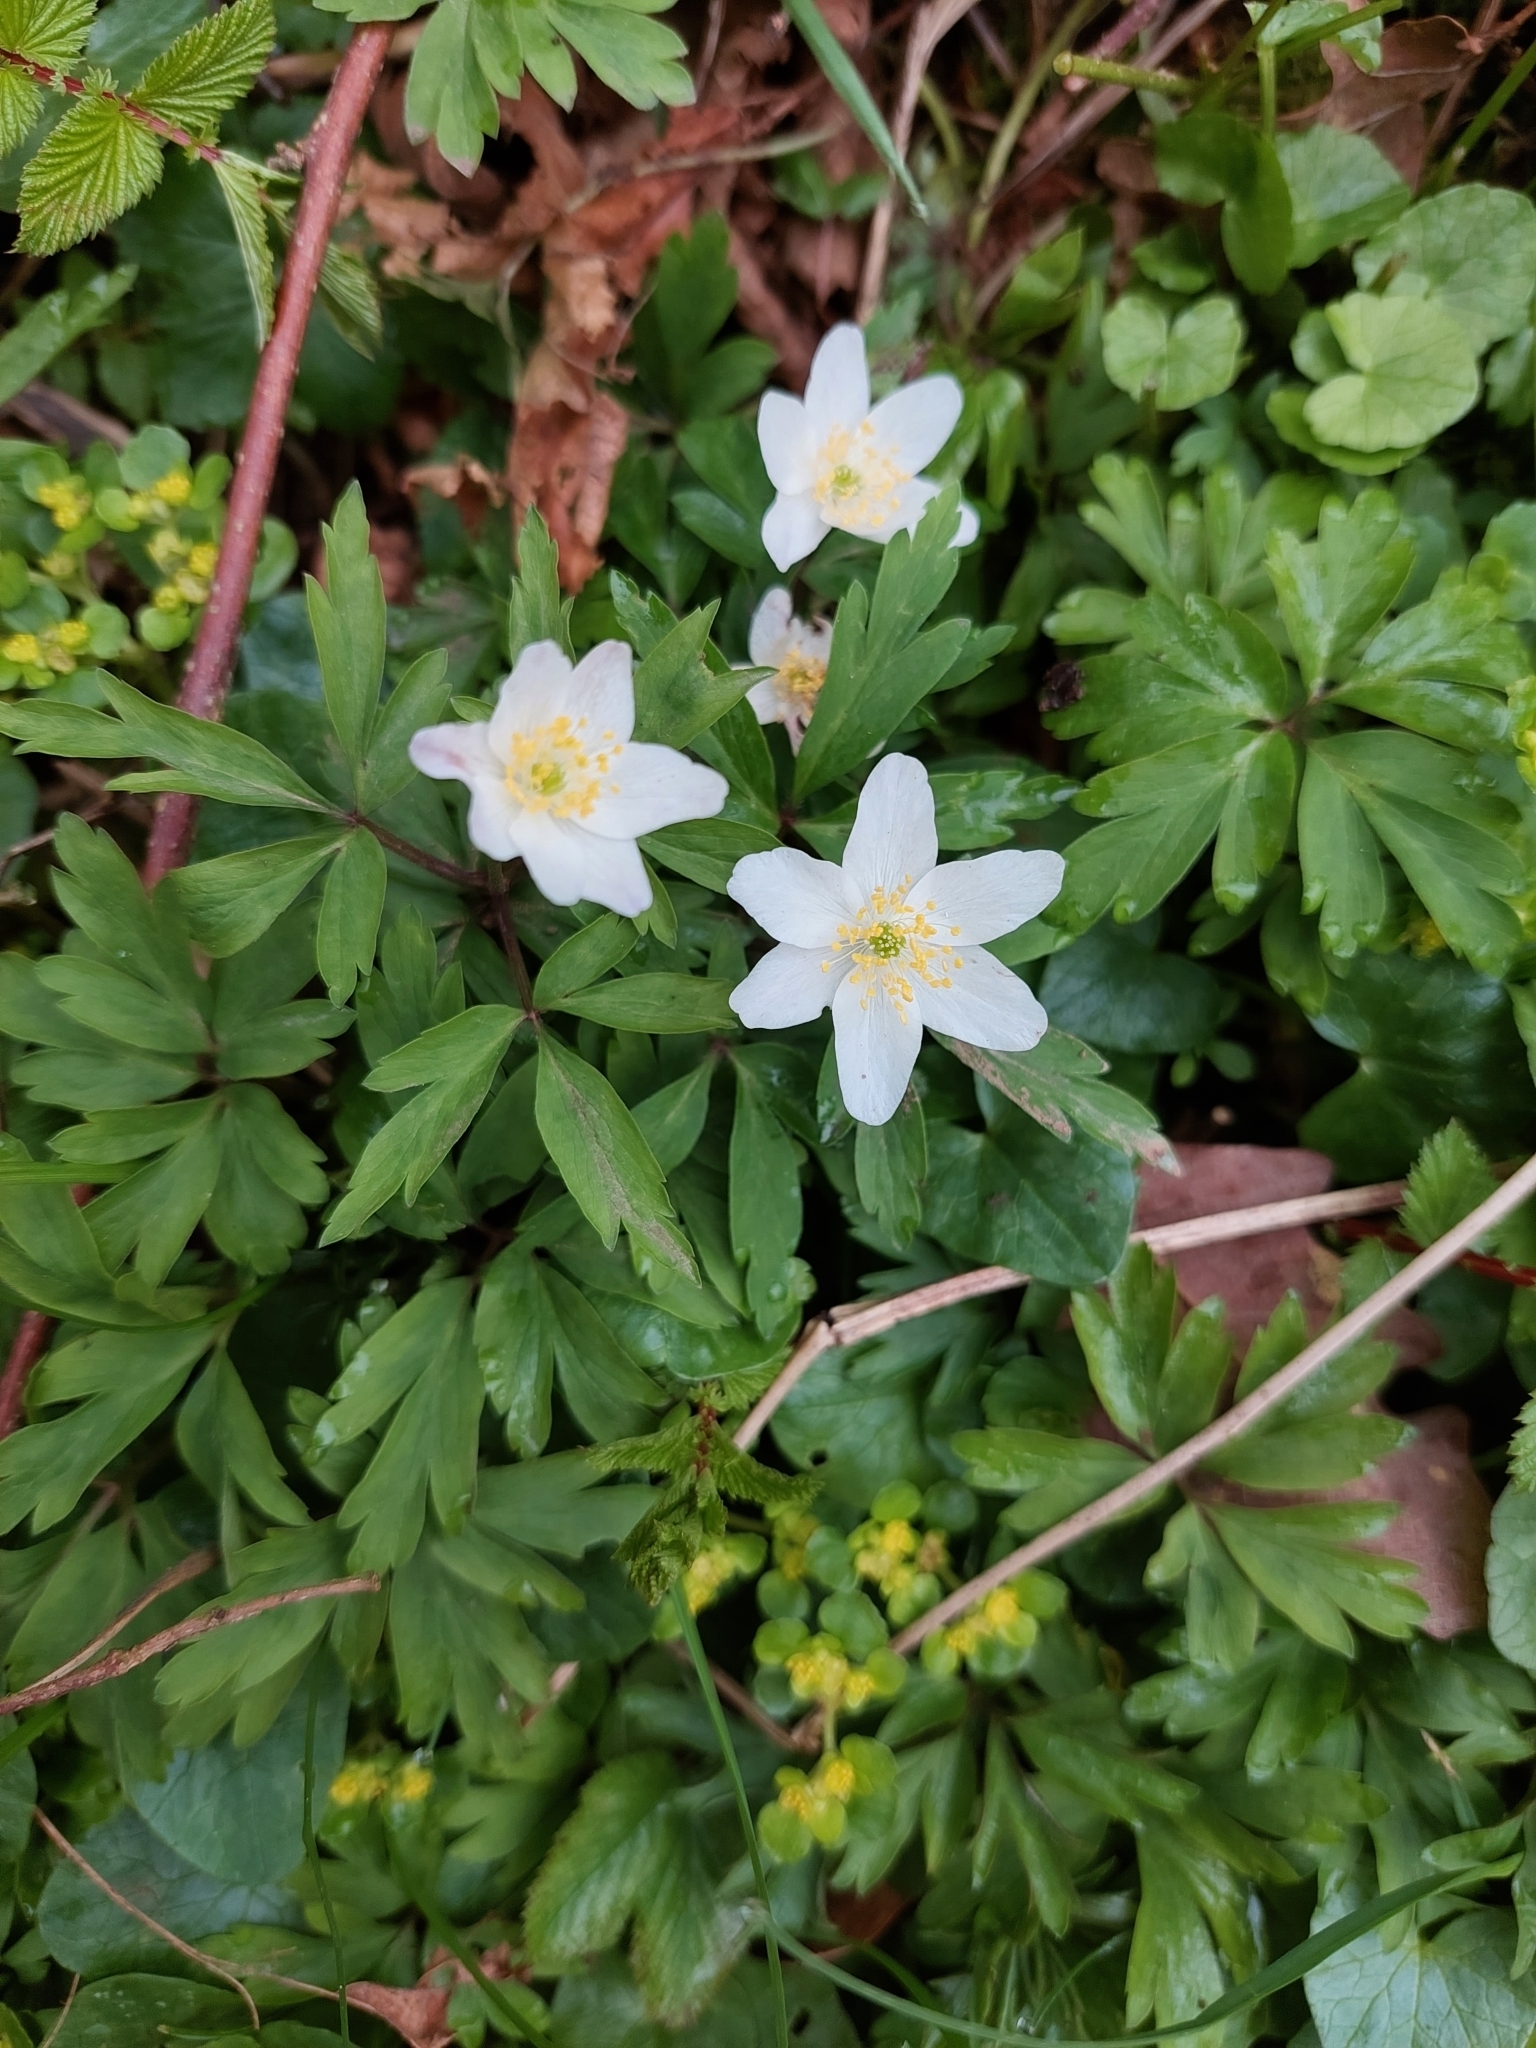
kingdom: Plantae
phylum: Tracheophyta
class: Magnoliopsida
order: Ranunculales
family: Ranunculaceae
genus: Anemone
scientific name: Anemone nemorosa
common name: Wood anemone
